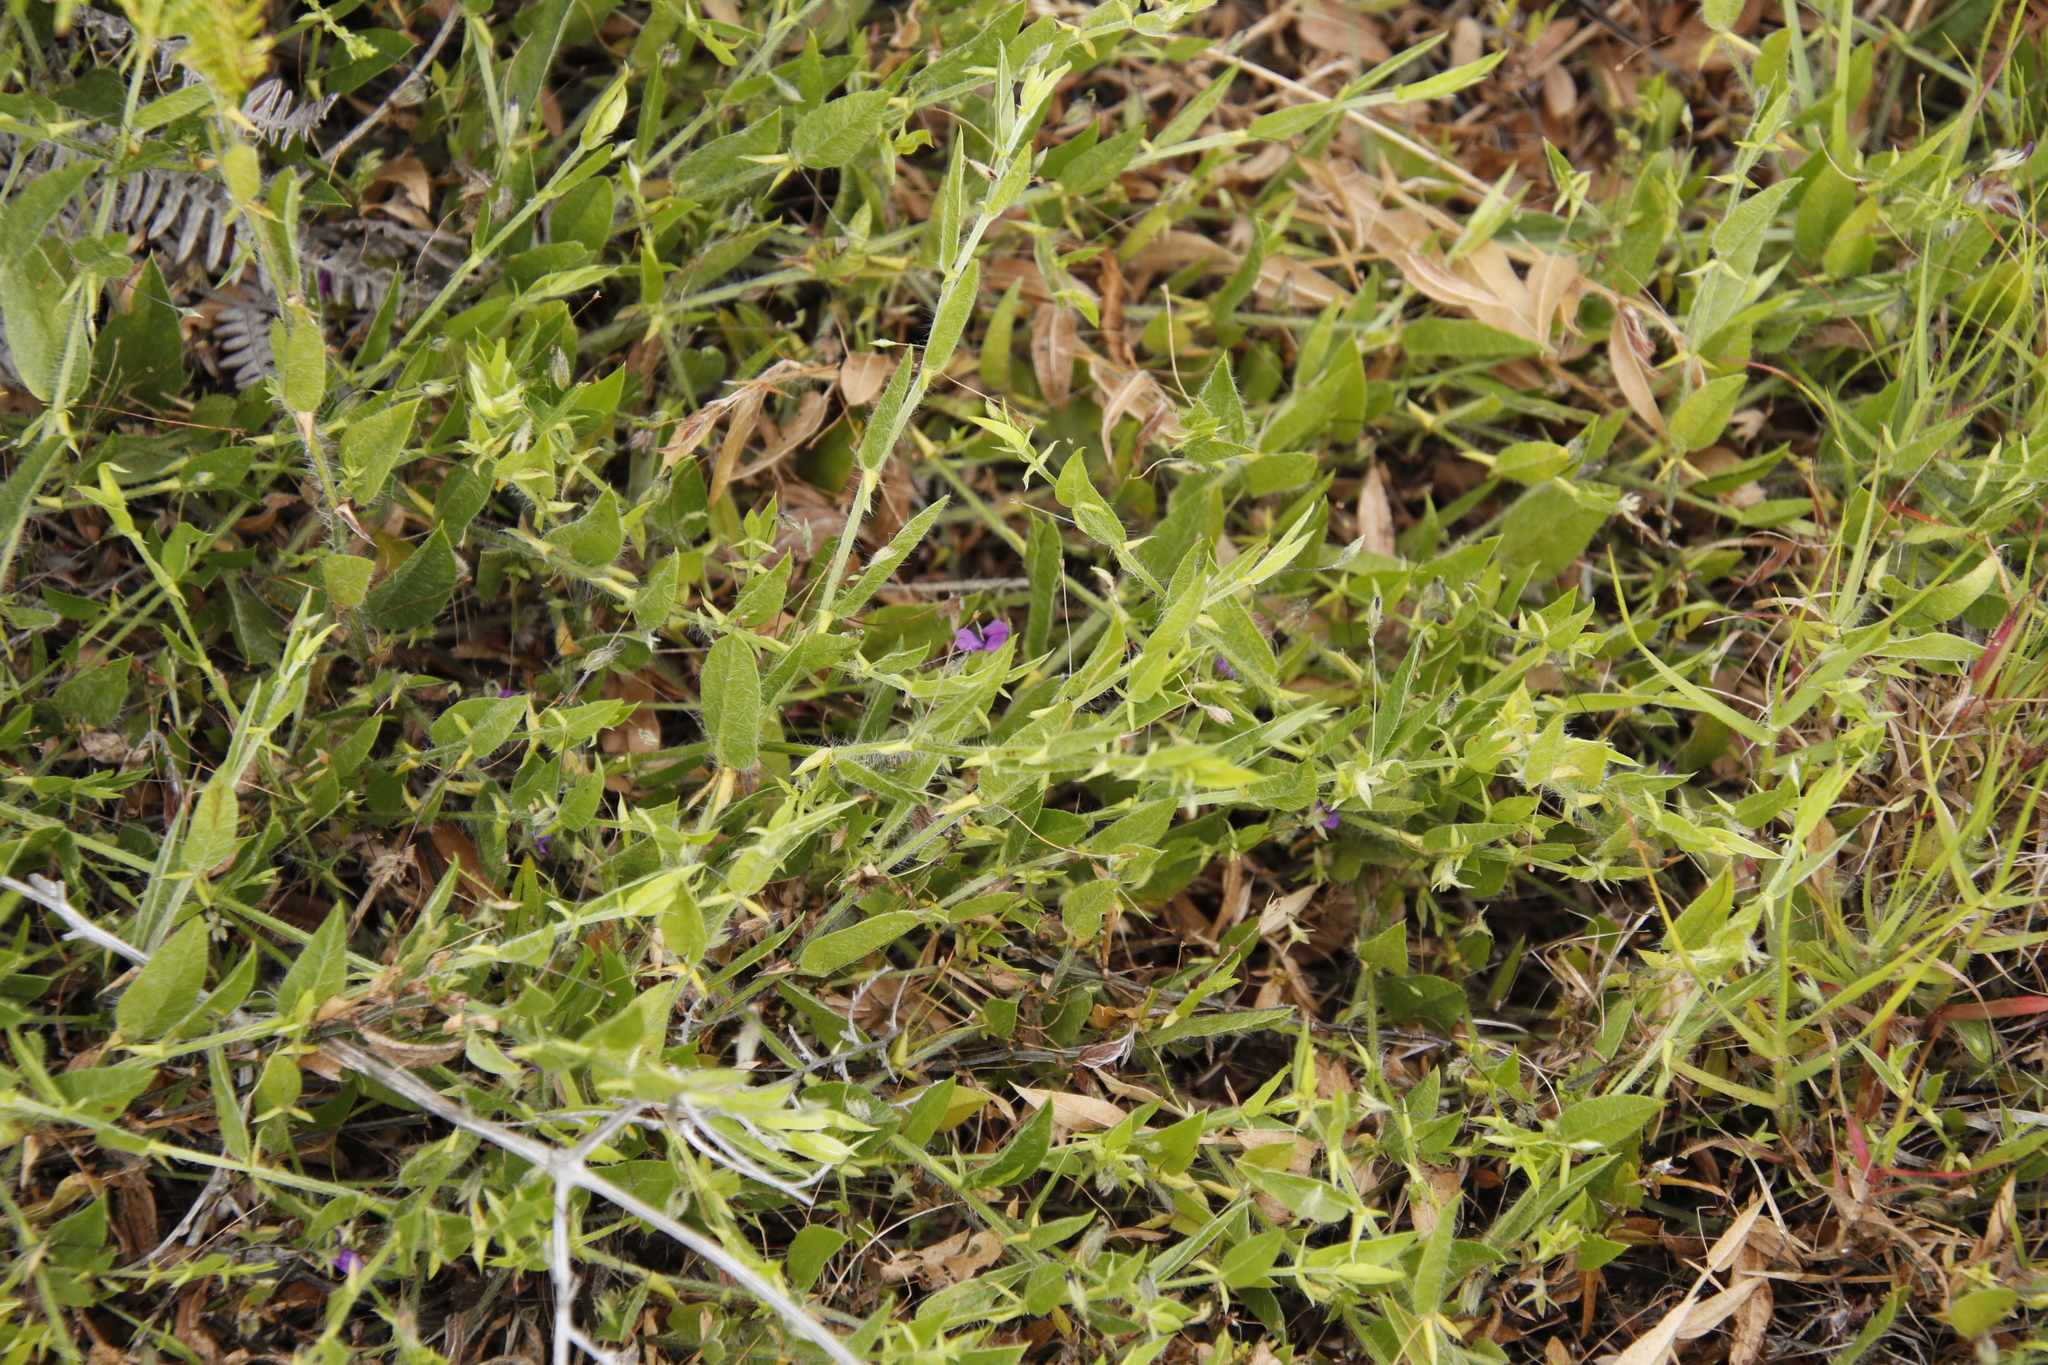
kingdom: Plantae
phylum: Tracheophyta
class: Magnoliopsida
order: Fabales
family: Fabaceae
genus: Psoralea
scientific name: Psoralea asarina
